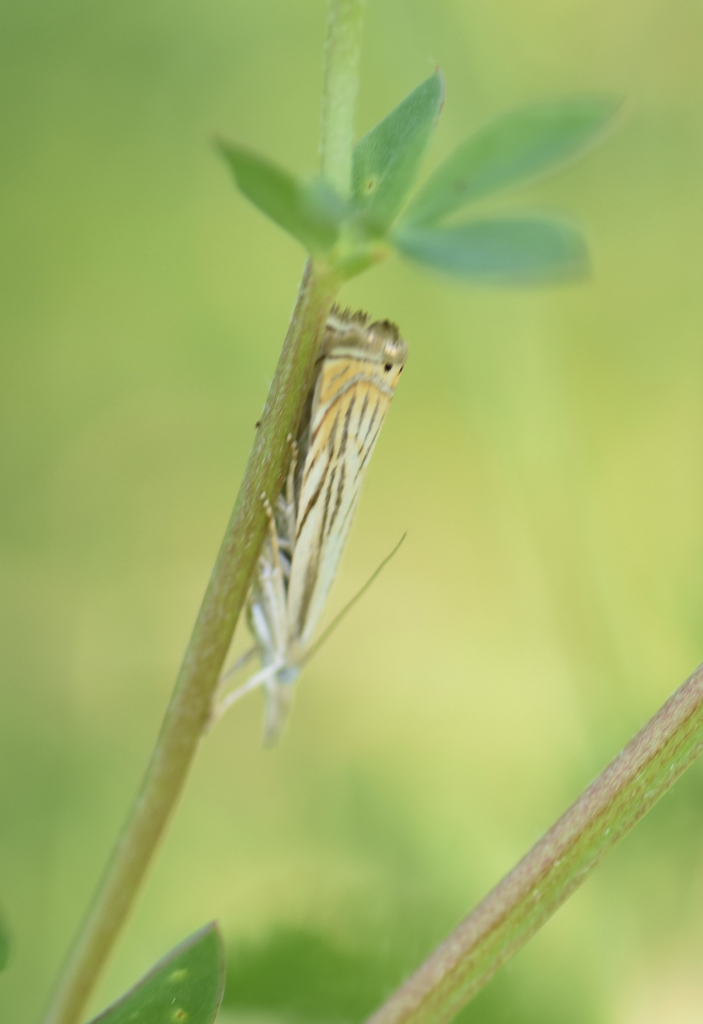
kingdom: Animalia
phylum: Arthropoda
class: Insecta
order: Lepidoptera
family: Crambidae
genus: Chrysoteuchia
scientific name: Chrysoteuchia topiarius
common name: Topiary grass-veneer
